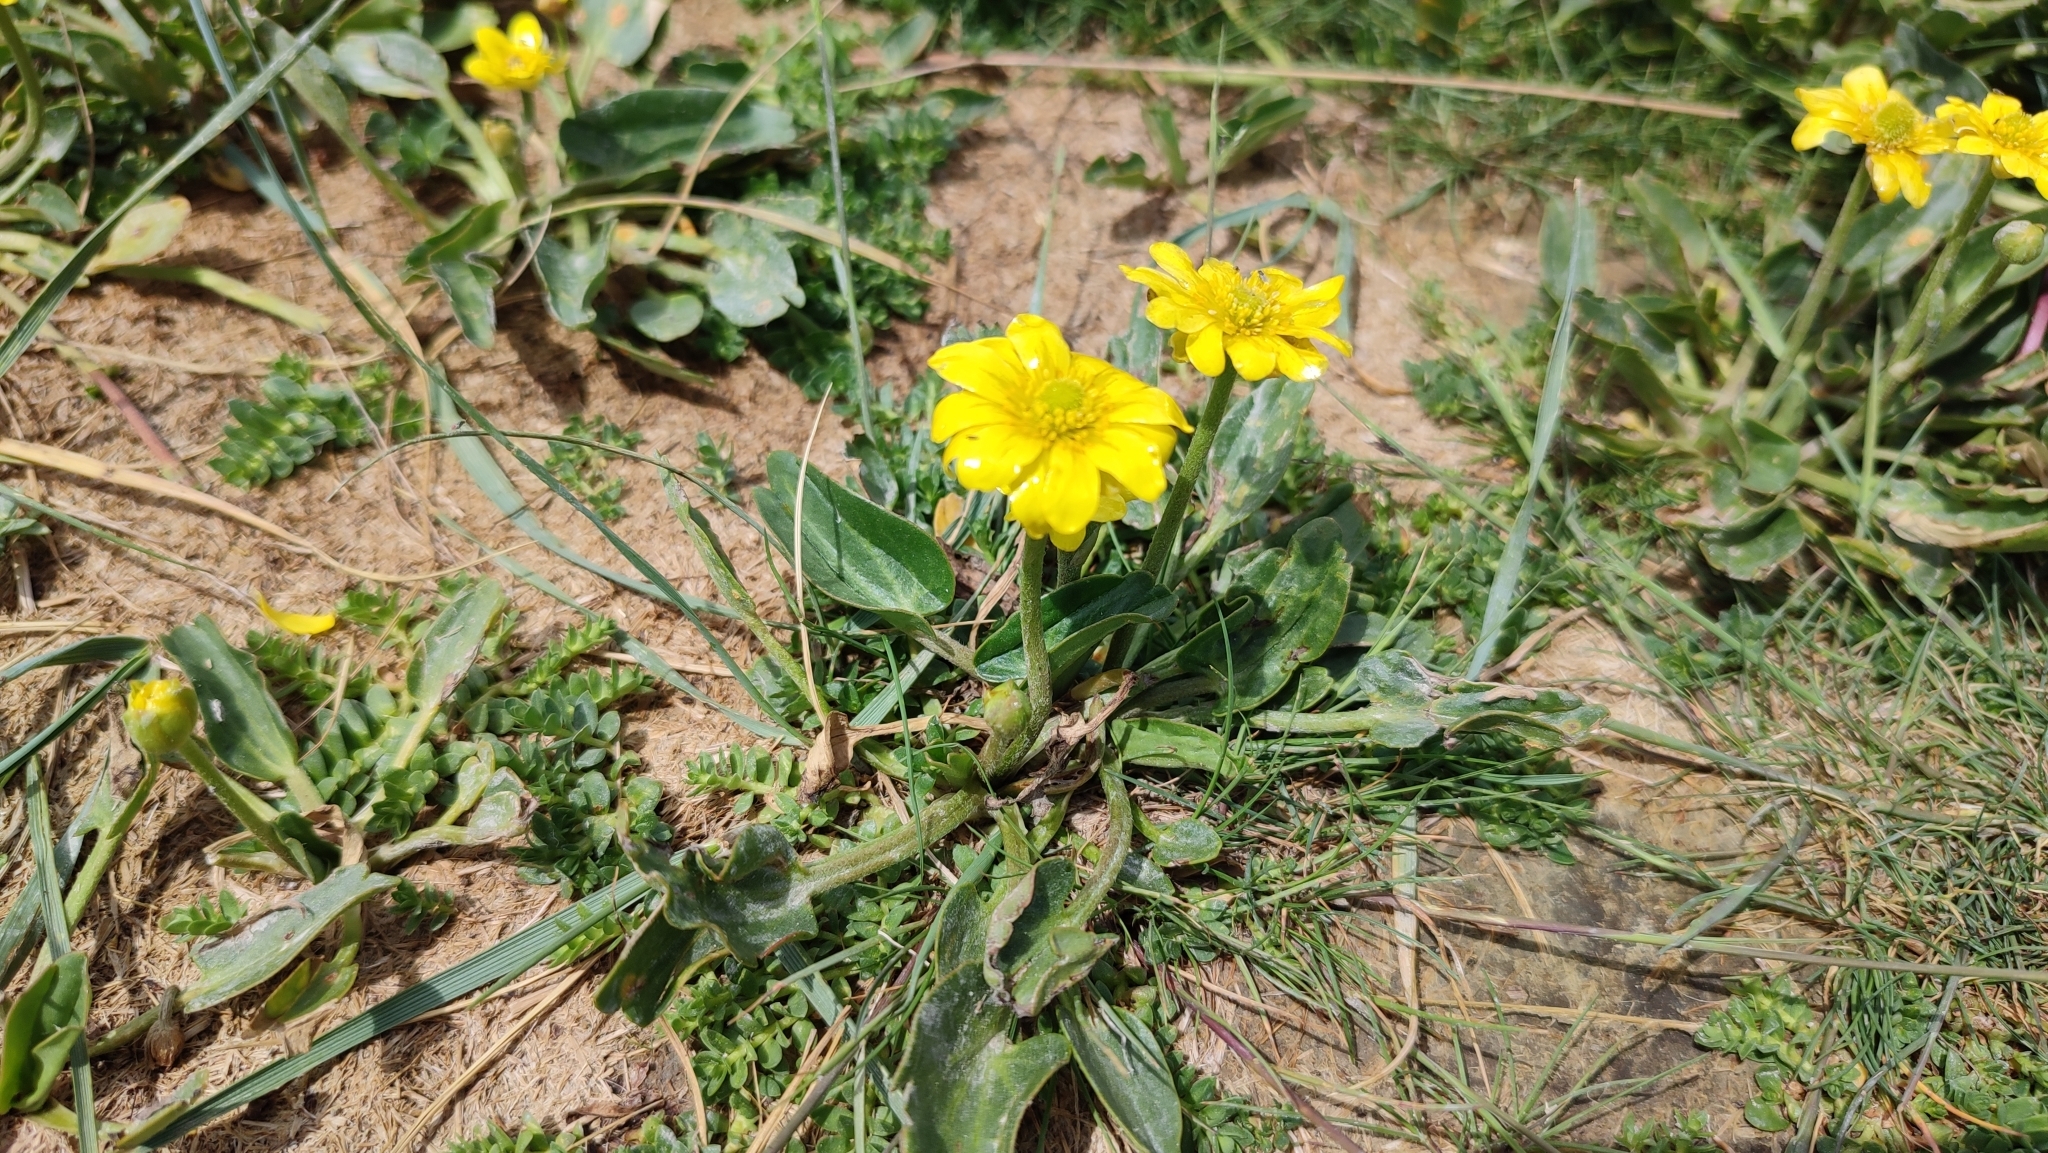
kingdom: Plantae
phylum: Tracheophyta
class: Magnoliopsida
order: Ranunculales
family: Ranunculaceae
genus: Halerpestes
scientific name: Halerpestes ruthenica
